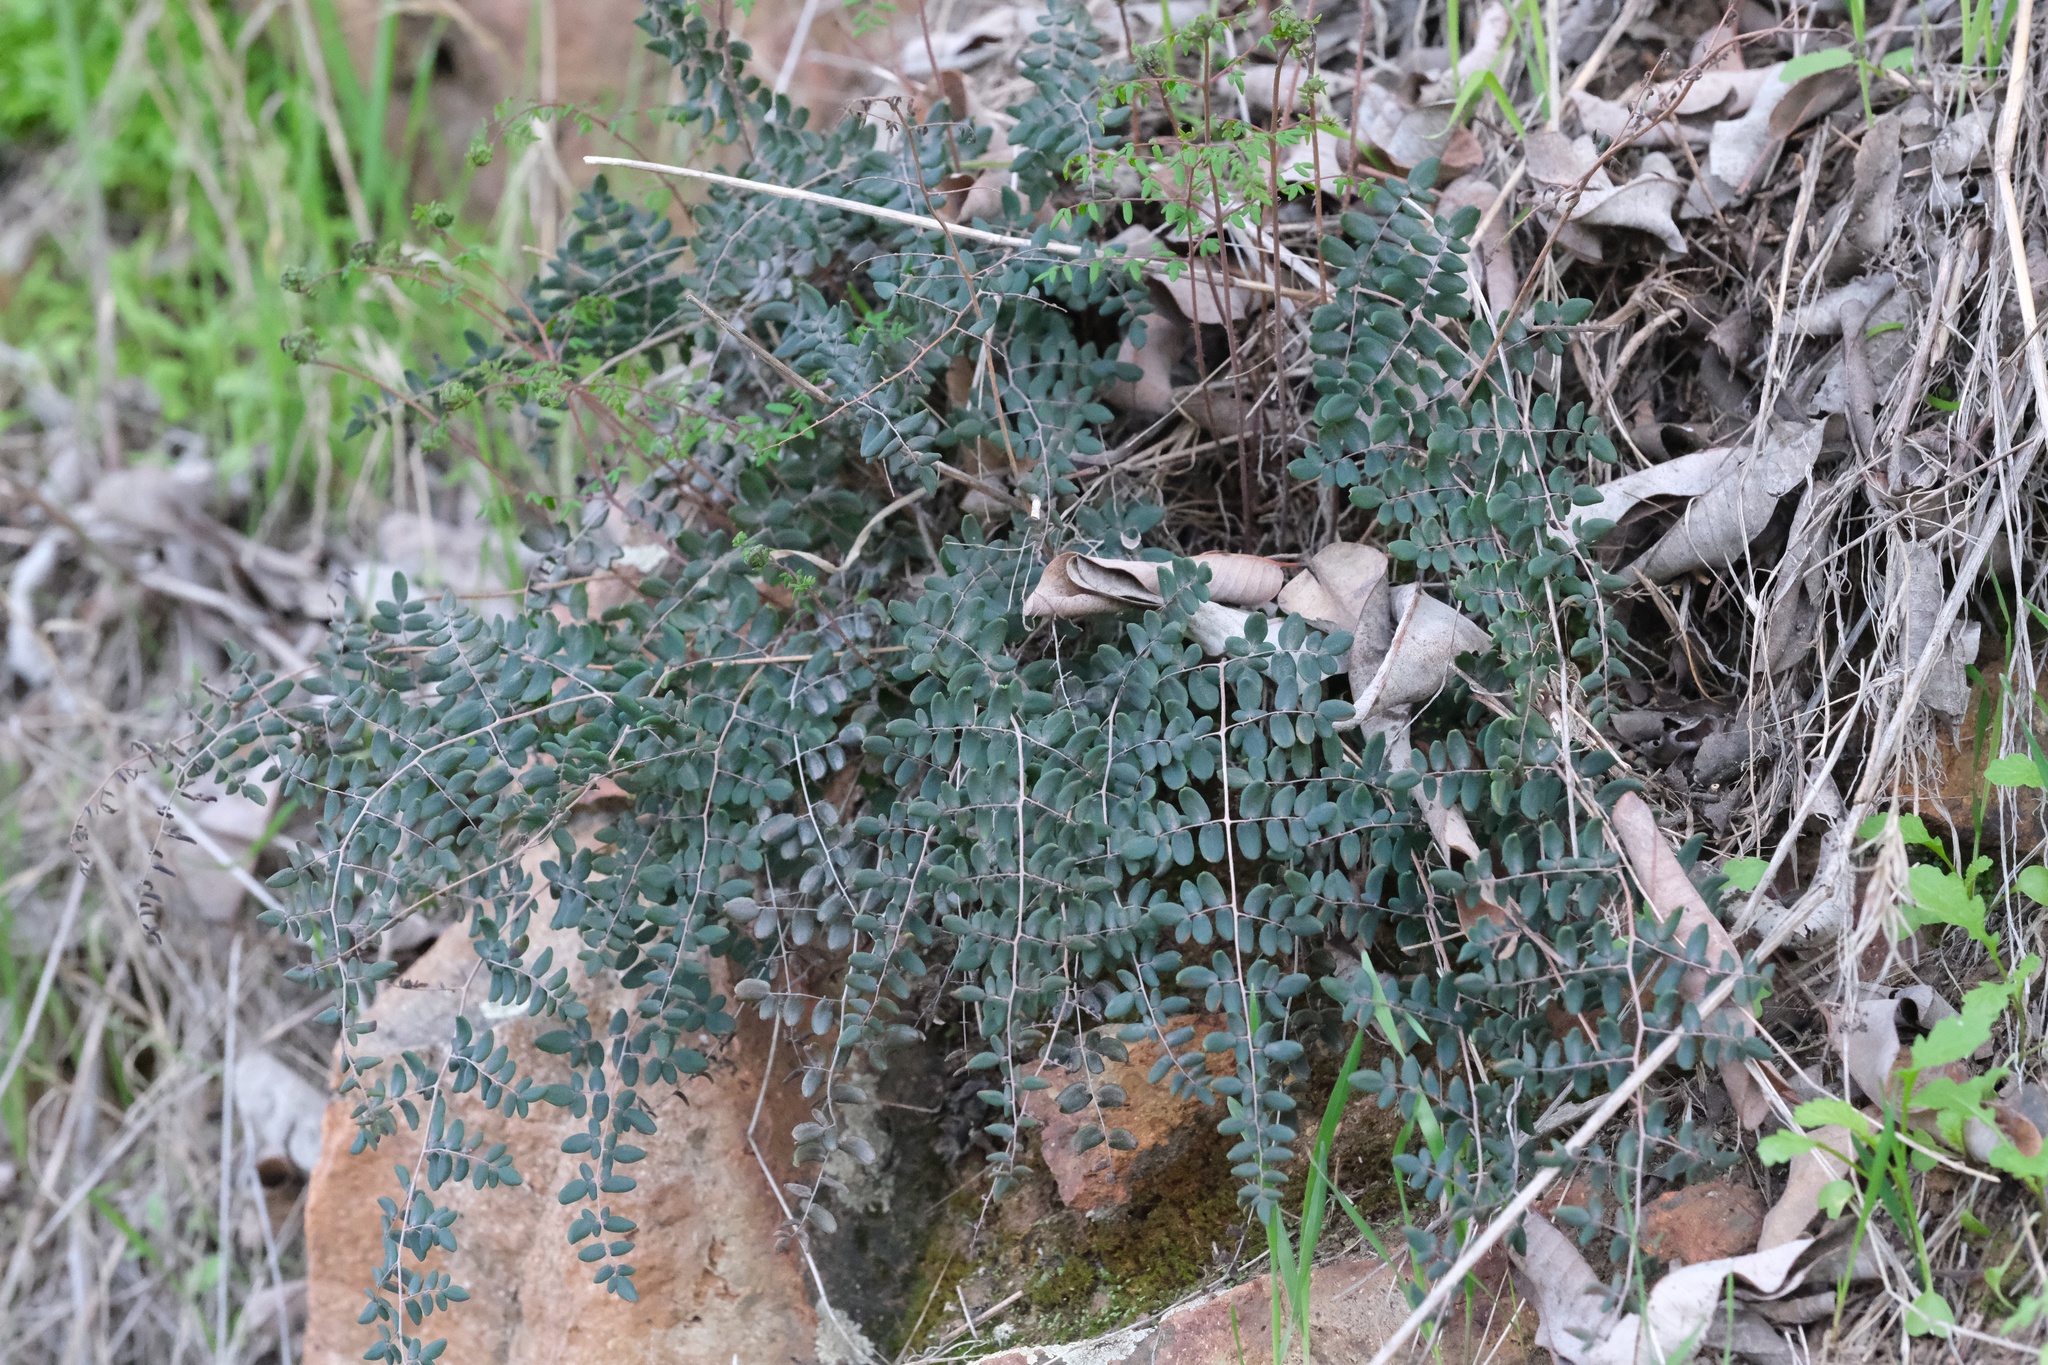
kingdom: Plantae
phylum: Tracheophyta
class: Polypodiopsida
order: Polypodiales
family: Pteridaceae
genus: Pellaea
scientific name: Pellaea andromedifolia
